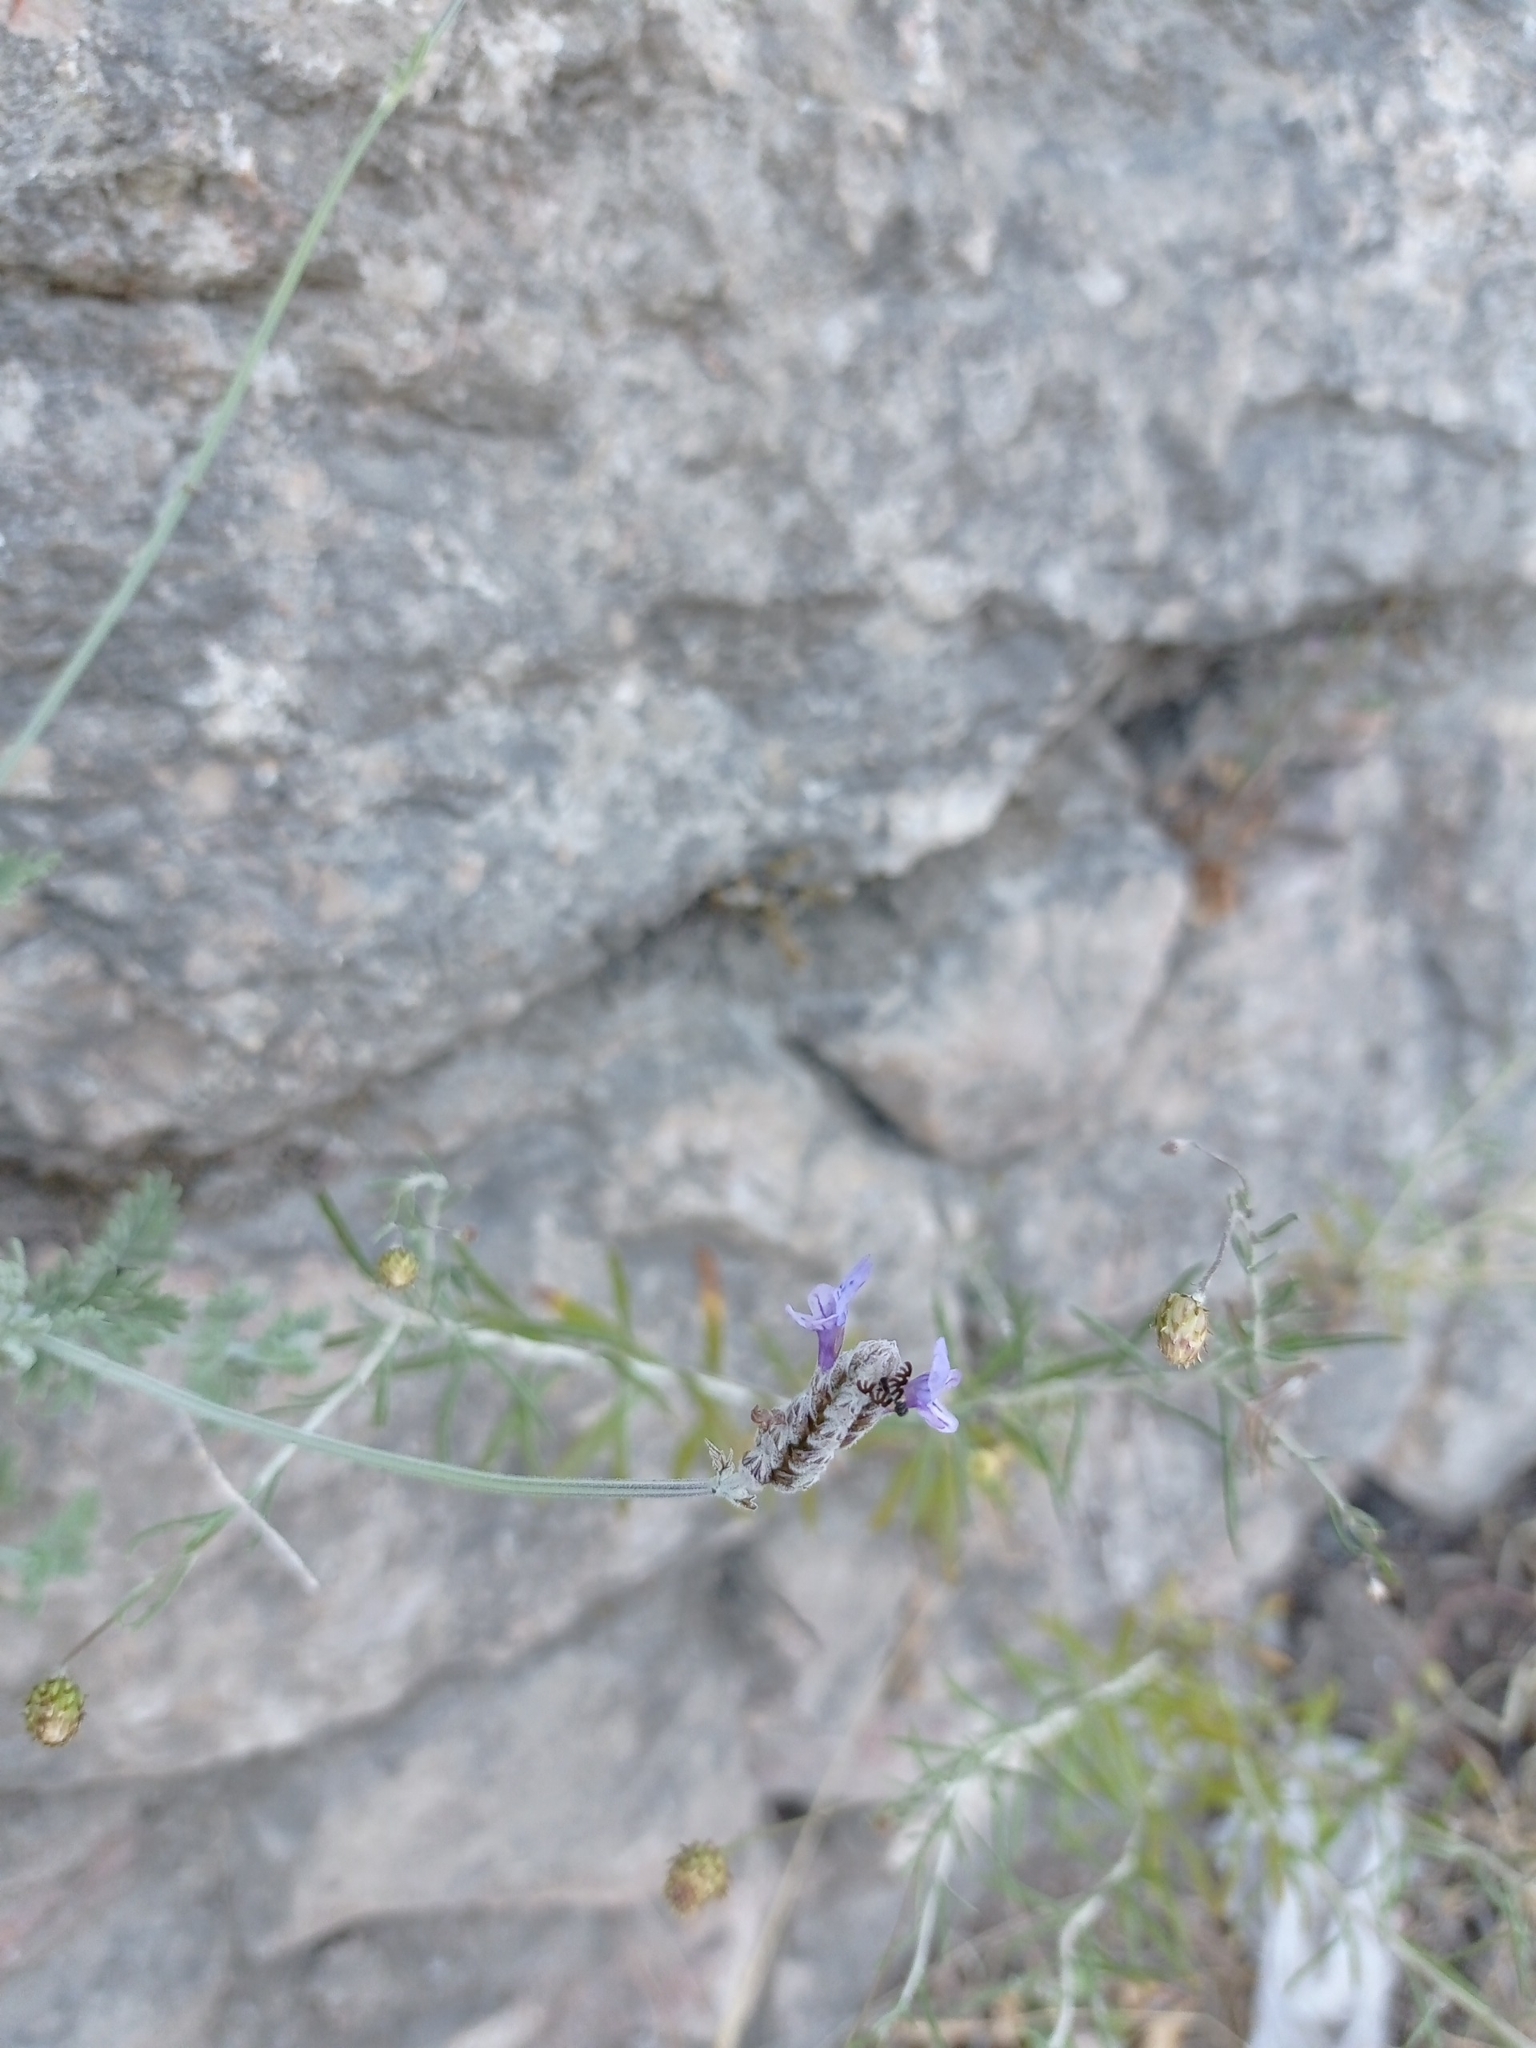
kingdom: Plantae
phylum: Tracheophyta
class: Magnoliopsida
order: Lamiales
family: Lamiaceae
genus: Lavandula
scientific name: Lavandula multifida
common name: Fern-leaf lavender
